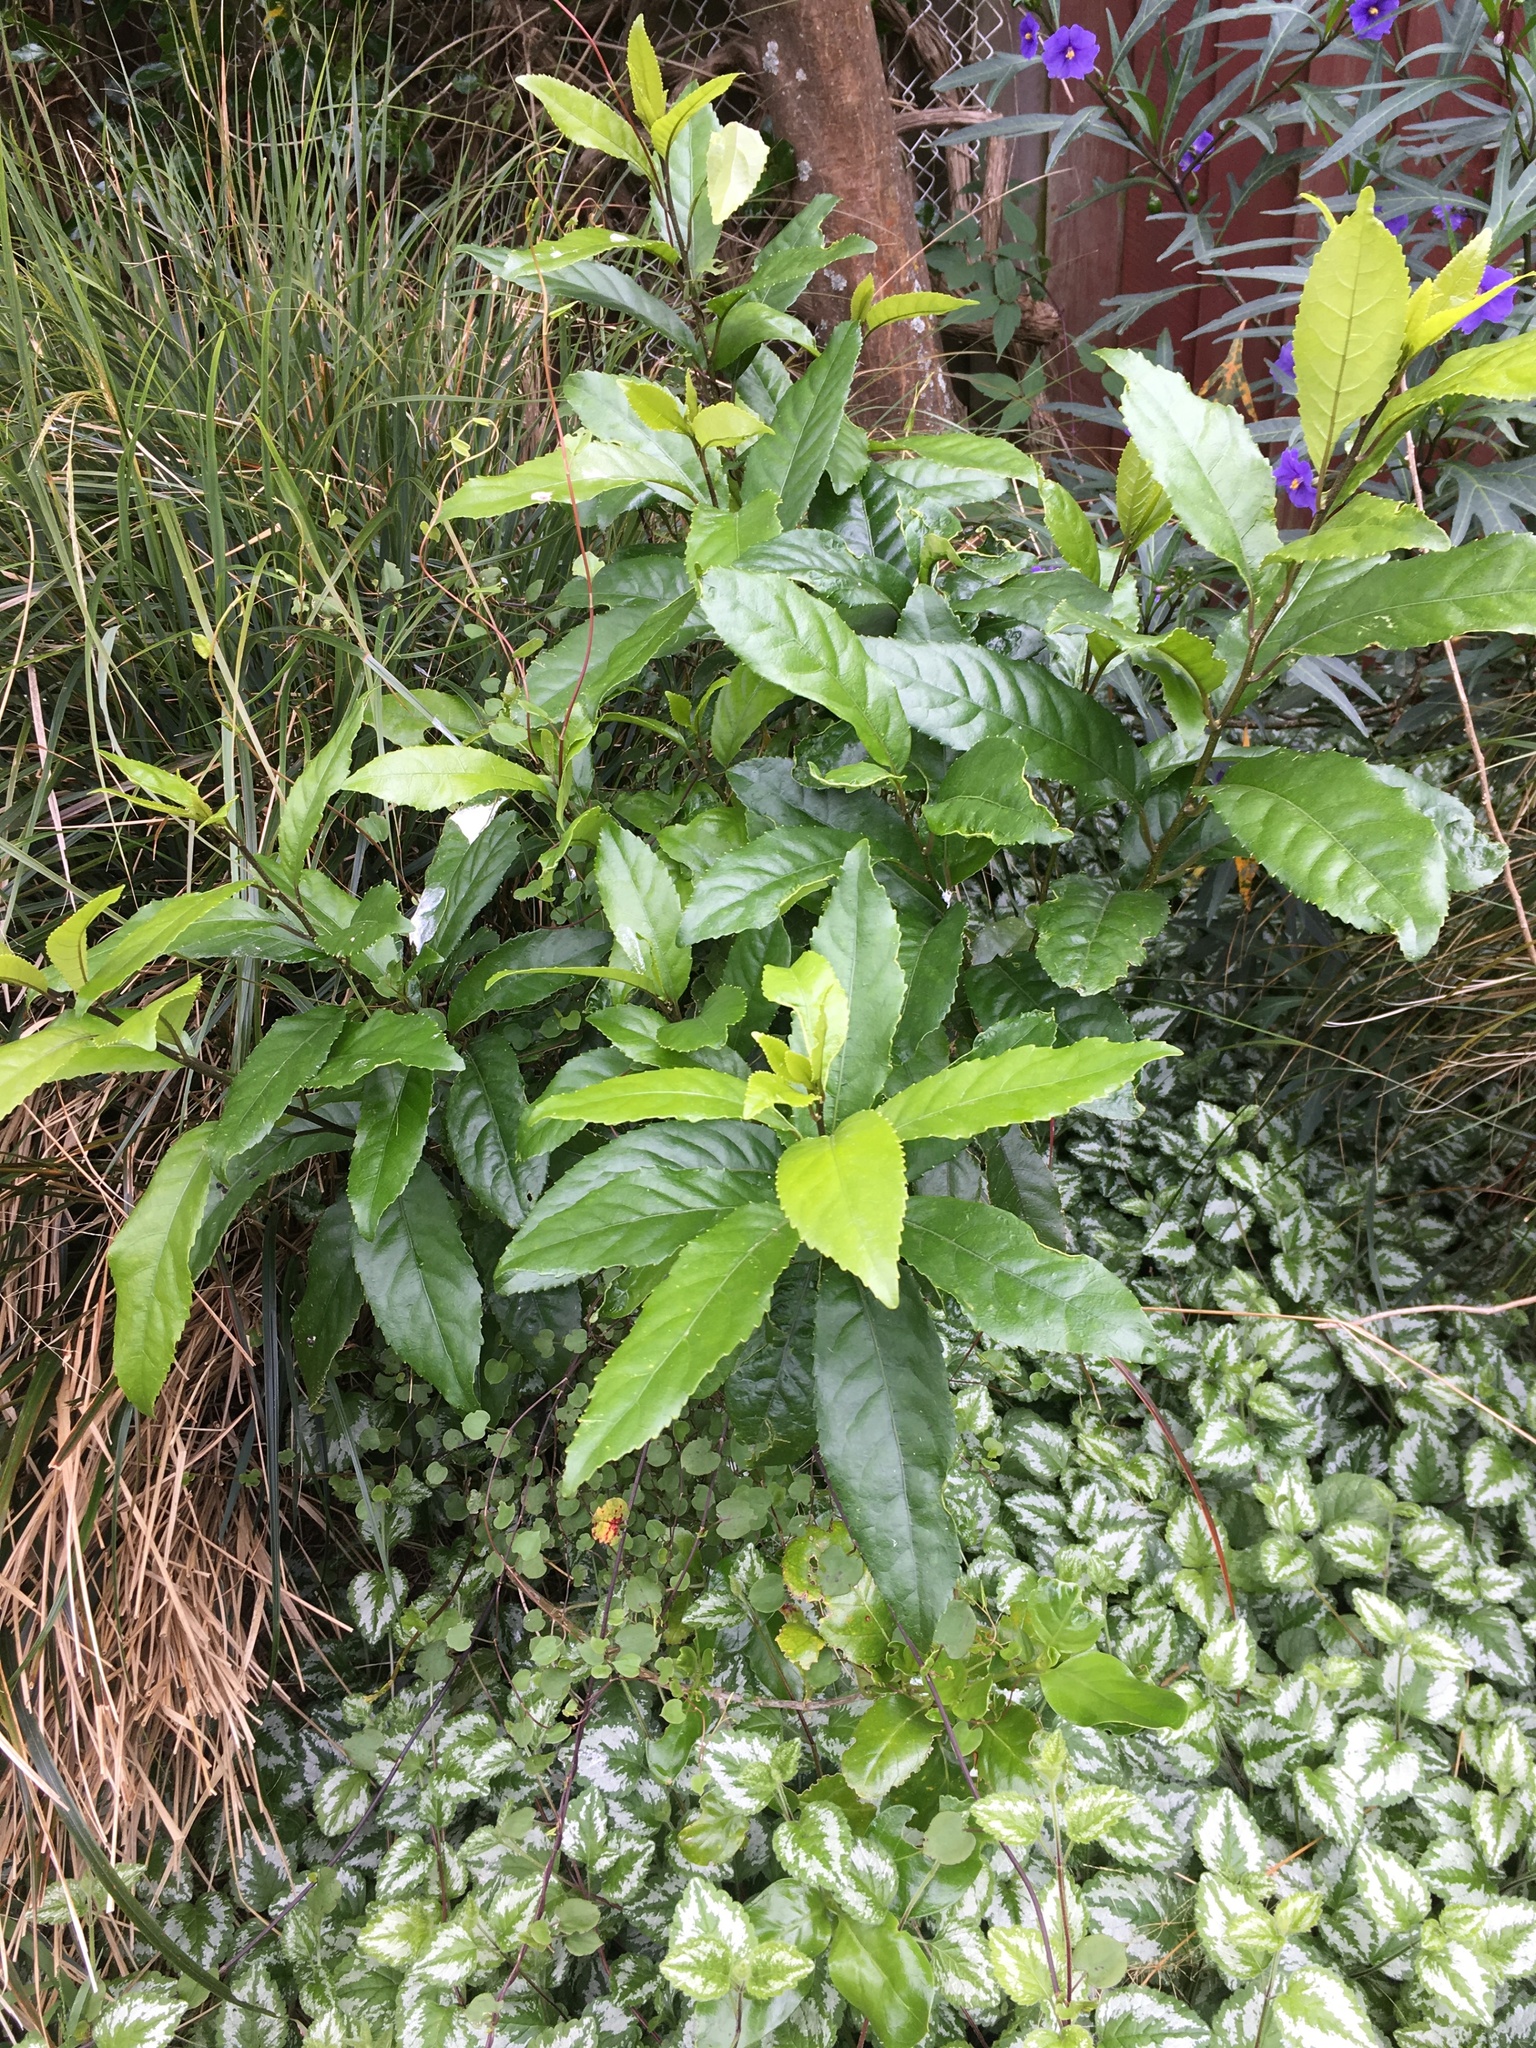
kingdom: Plantae
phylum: Tracheophyta
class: Magnoliopsida
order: Malpighiales
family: Violaceae
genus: Melicytus
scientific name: Melicytus ramiflorus
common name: Mahoe
